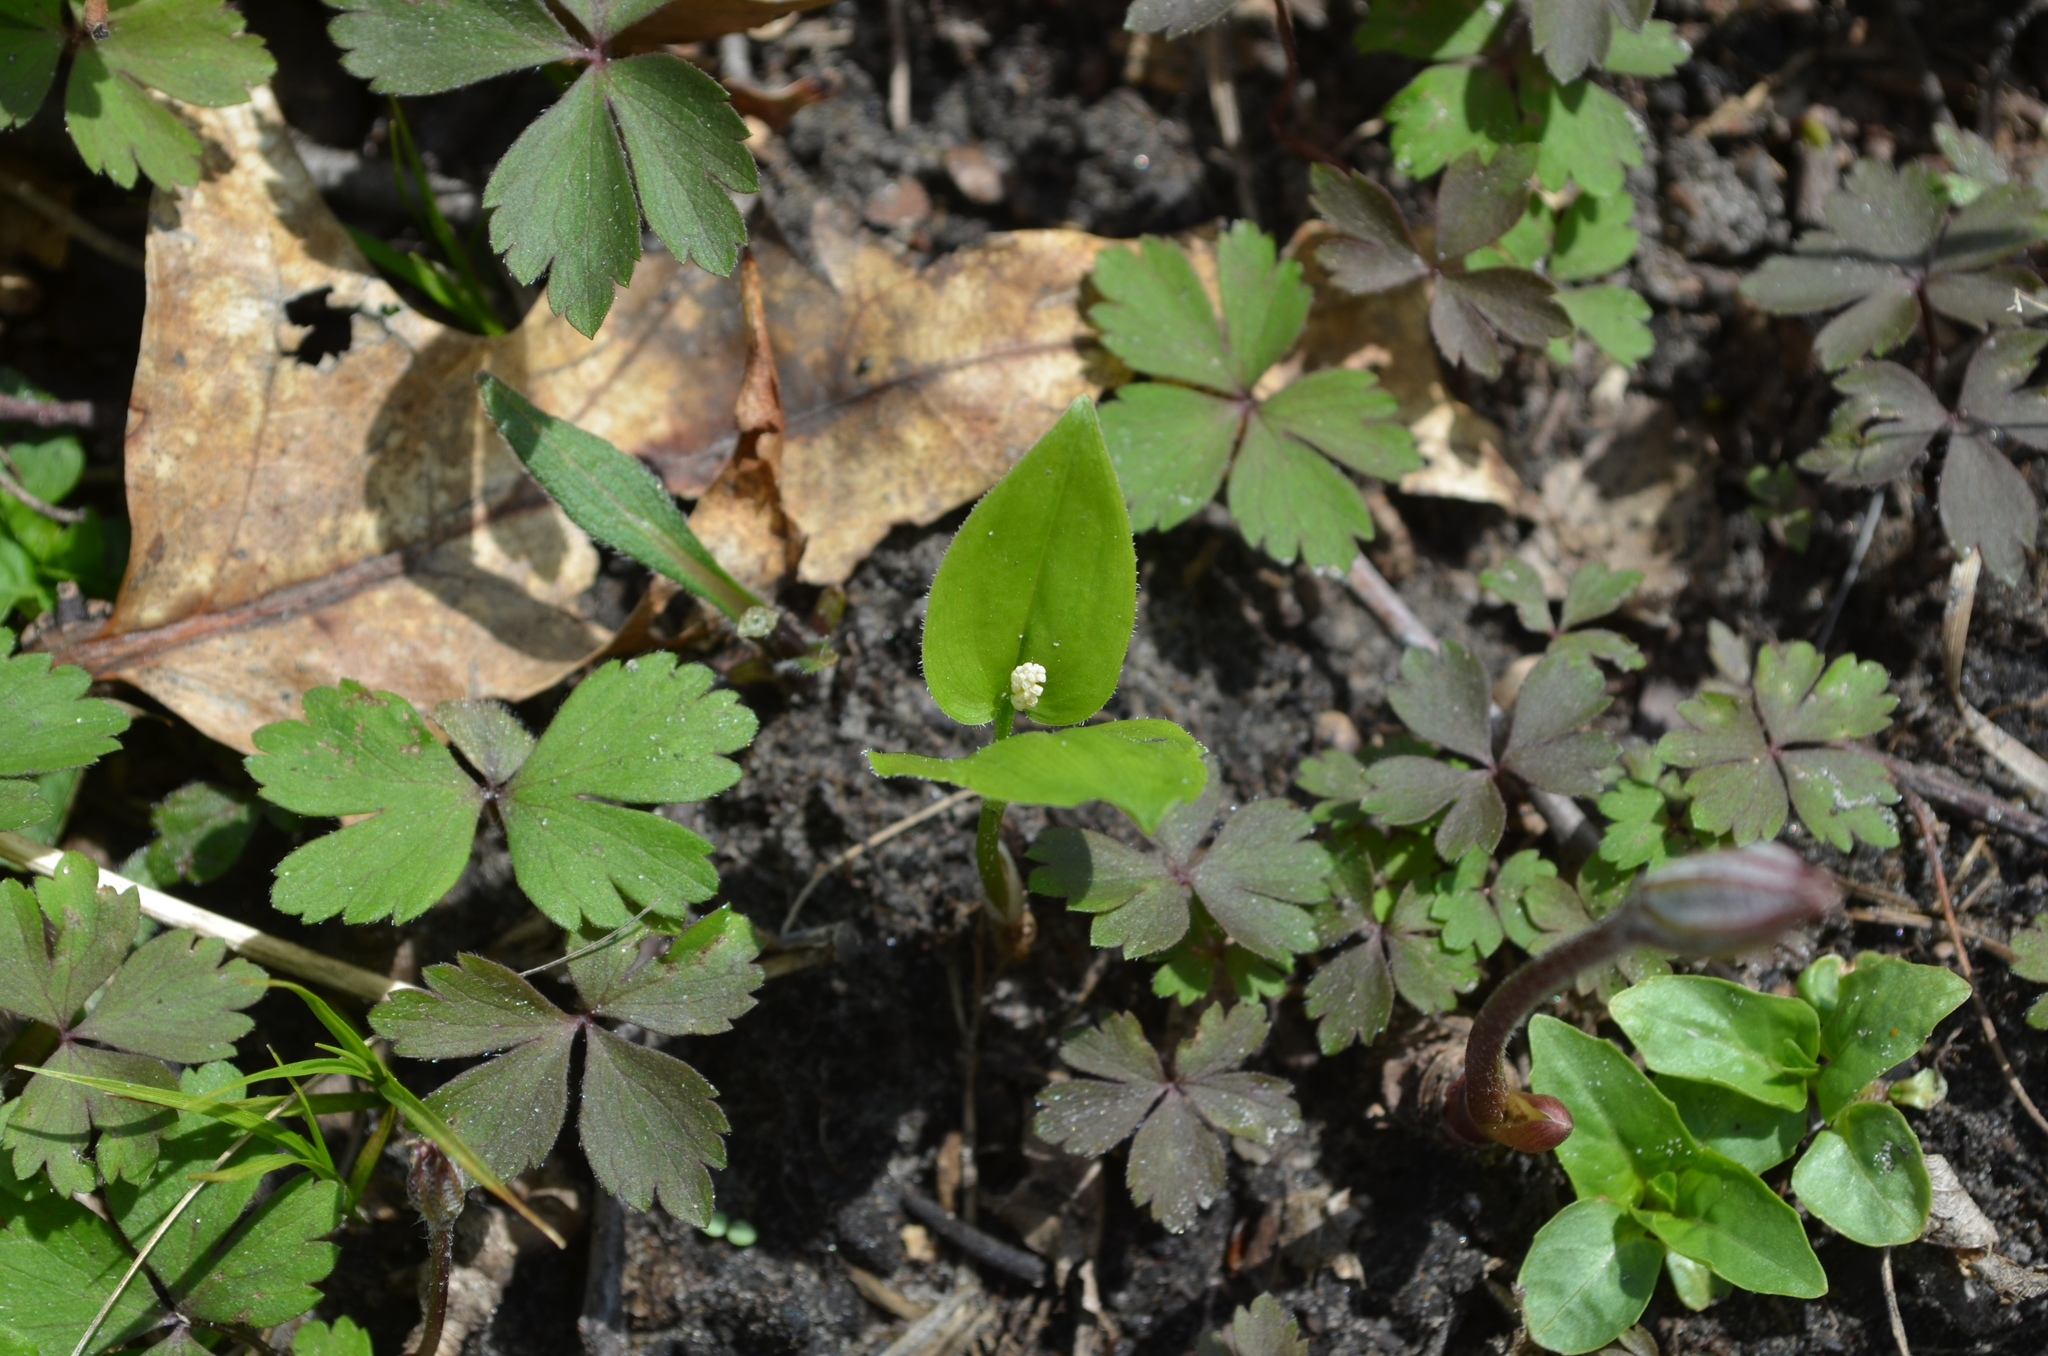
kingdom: Plantae
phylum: Tracheophyta
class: Liliopsida
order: Asparagales
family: Asparagaceae
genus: Maianthemum
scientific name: Maianthemum canadense
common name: False lily-of-the-valley
